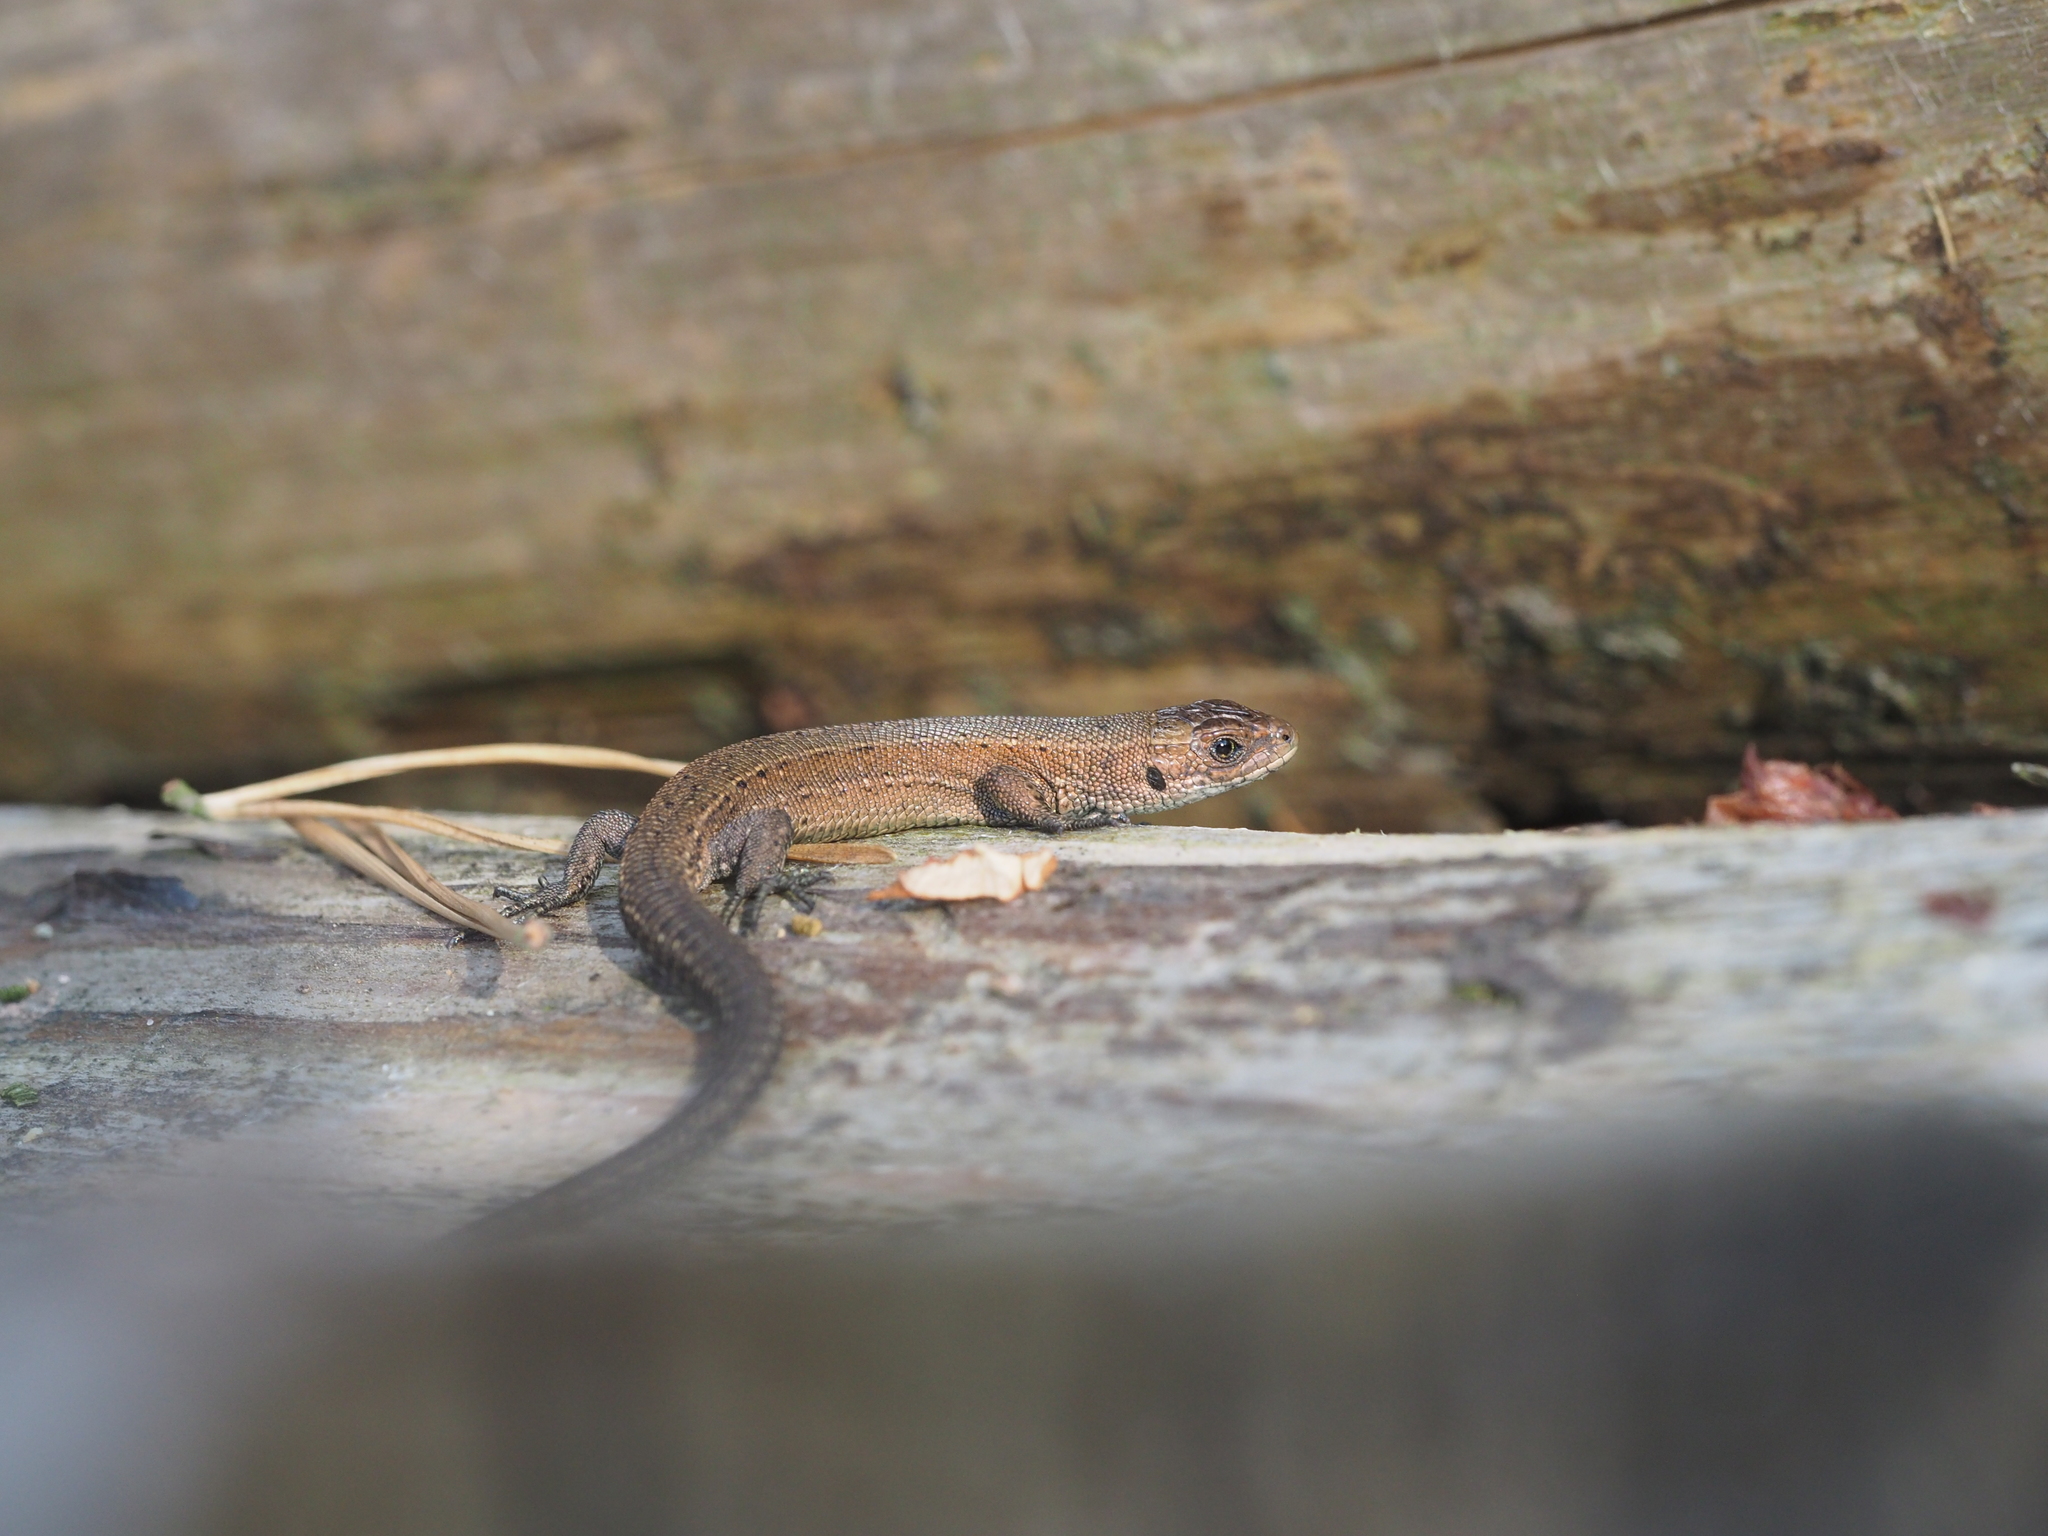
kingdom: Animalia
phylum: Chordata
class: Squamata
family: Lacertidae
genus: Zootoca
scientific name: Zootoca vivipara
